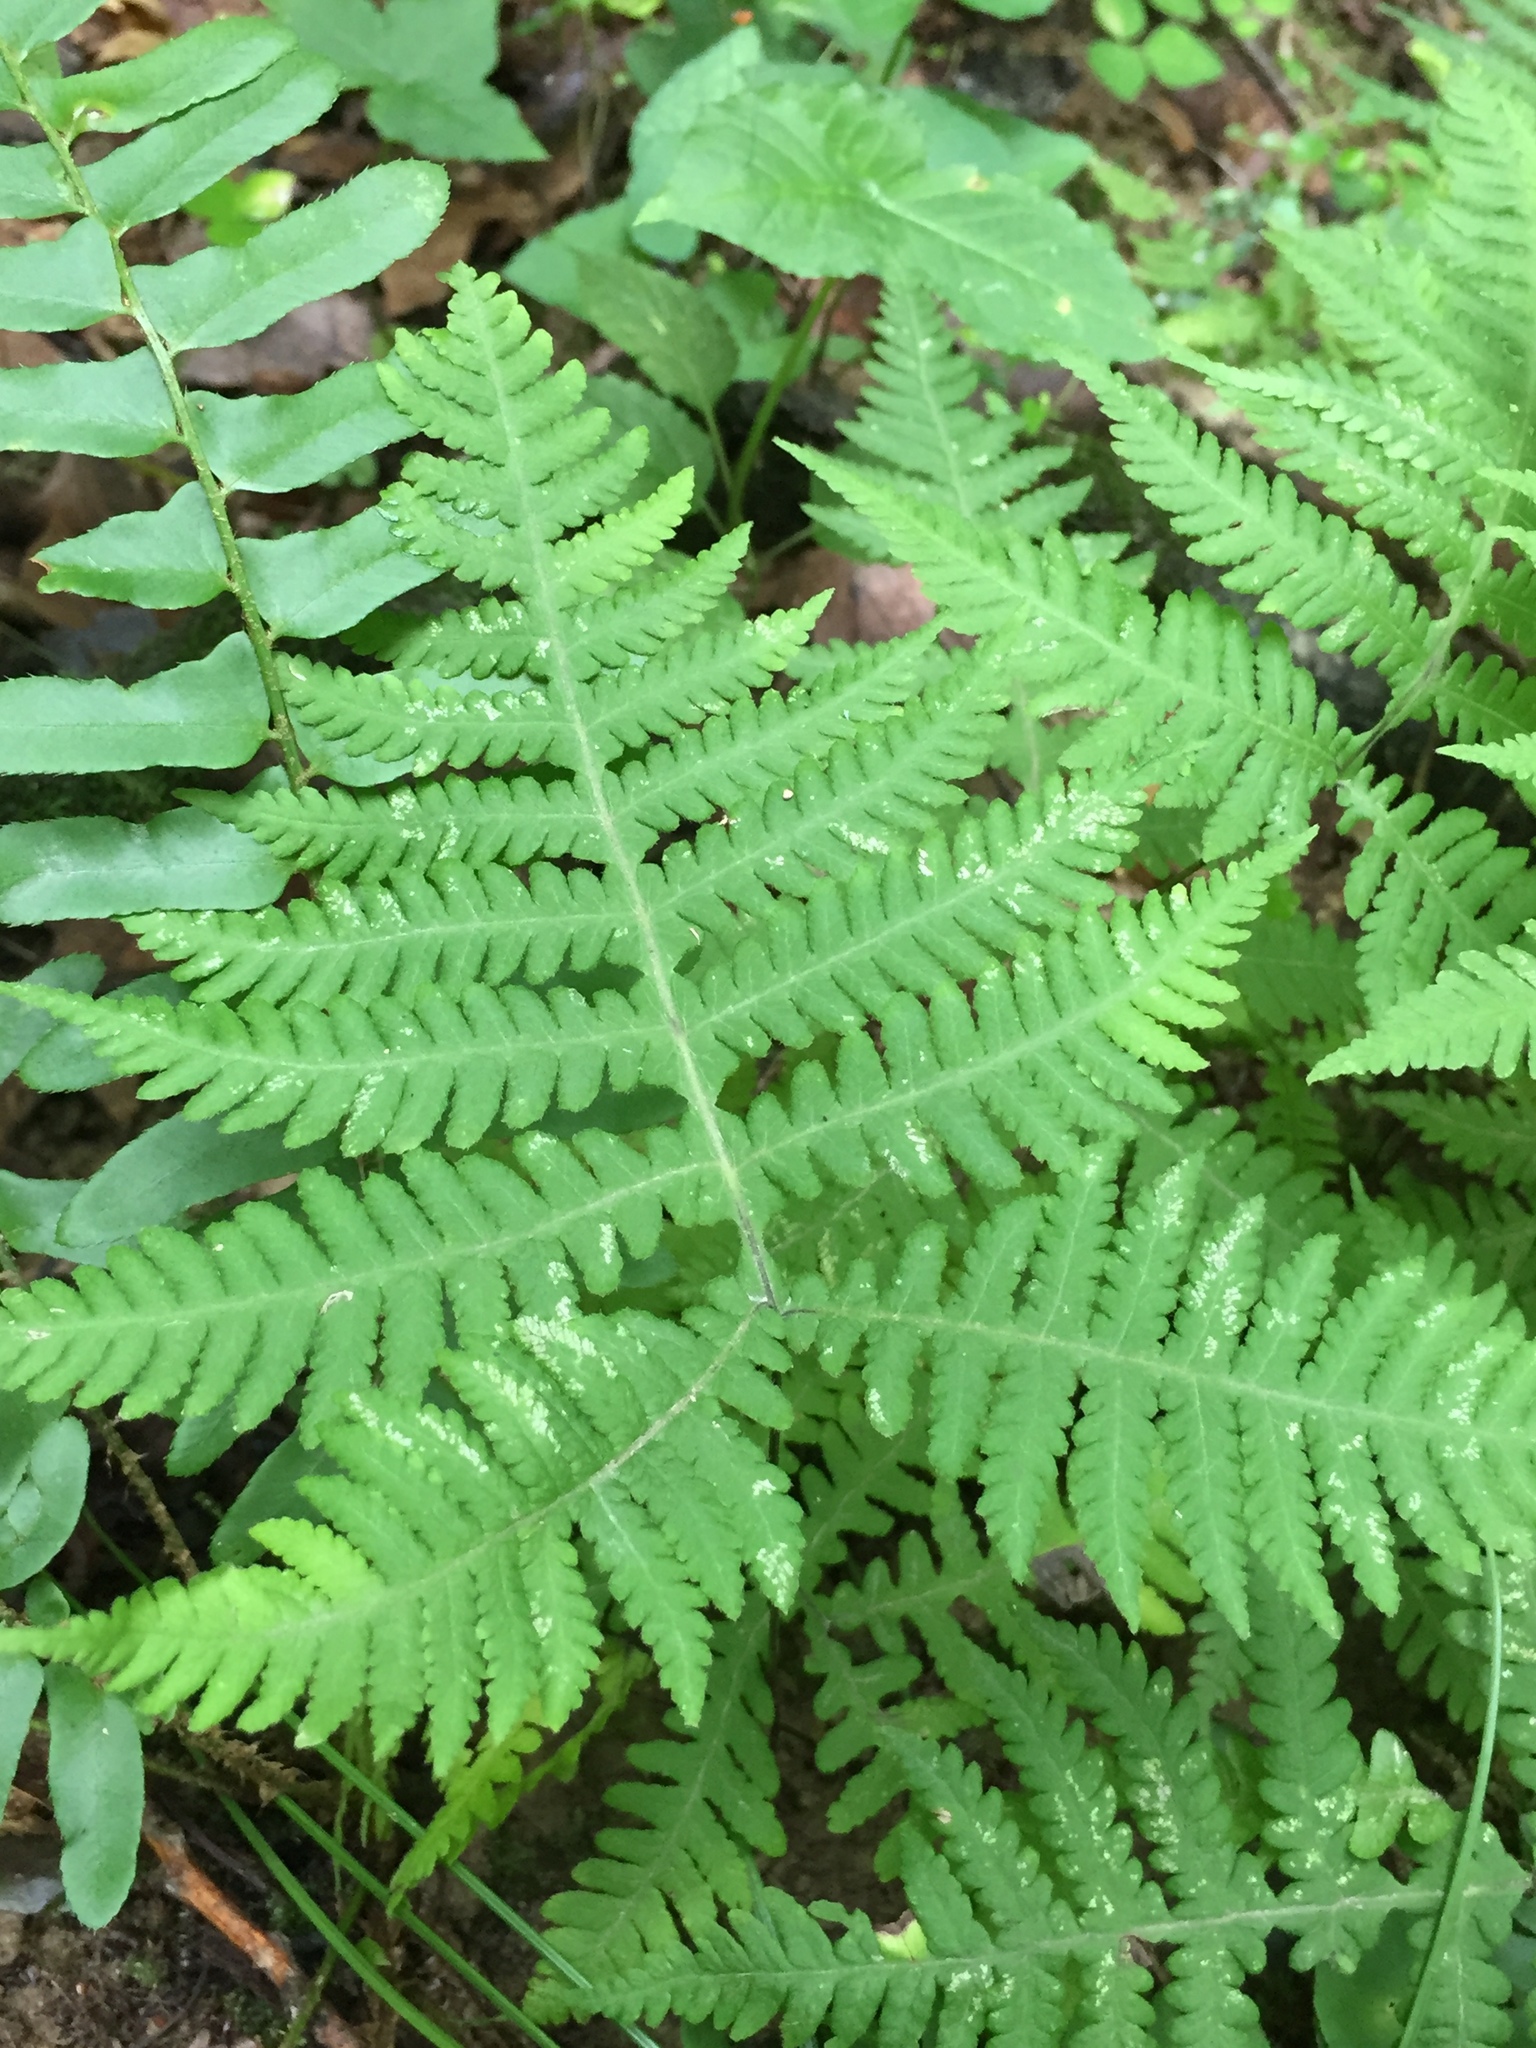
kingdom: Plantae
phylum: Tracheophyta
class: Polypodiopsida
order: Polypodiales
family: Thelypteridaceae
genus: Phegopteris
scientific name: Phegopteris hexagonoptera
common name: Broad beech fern
